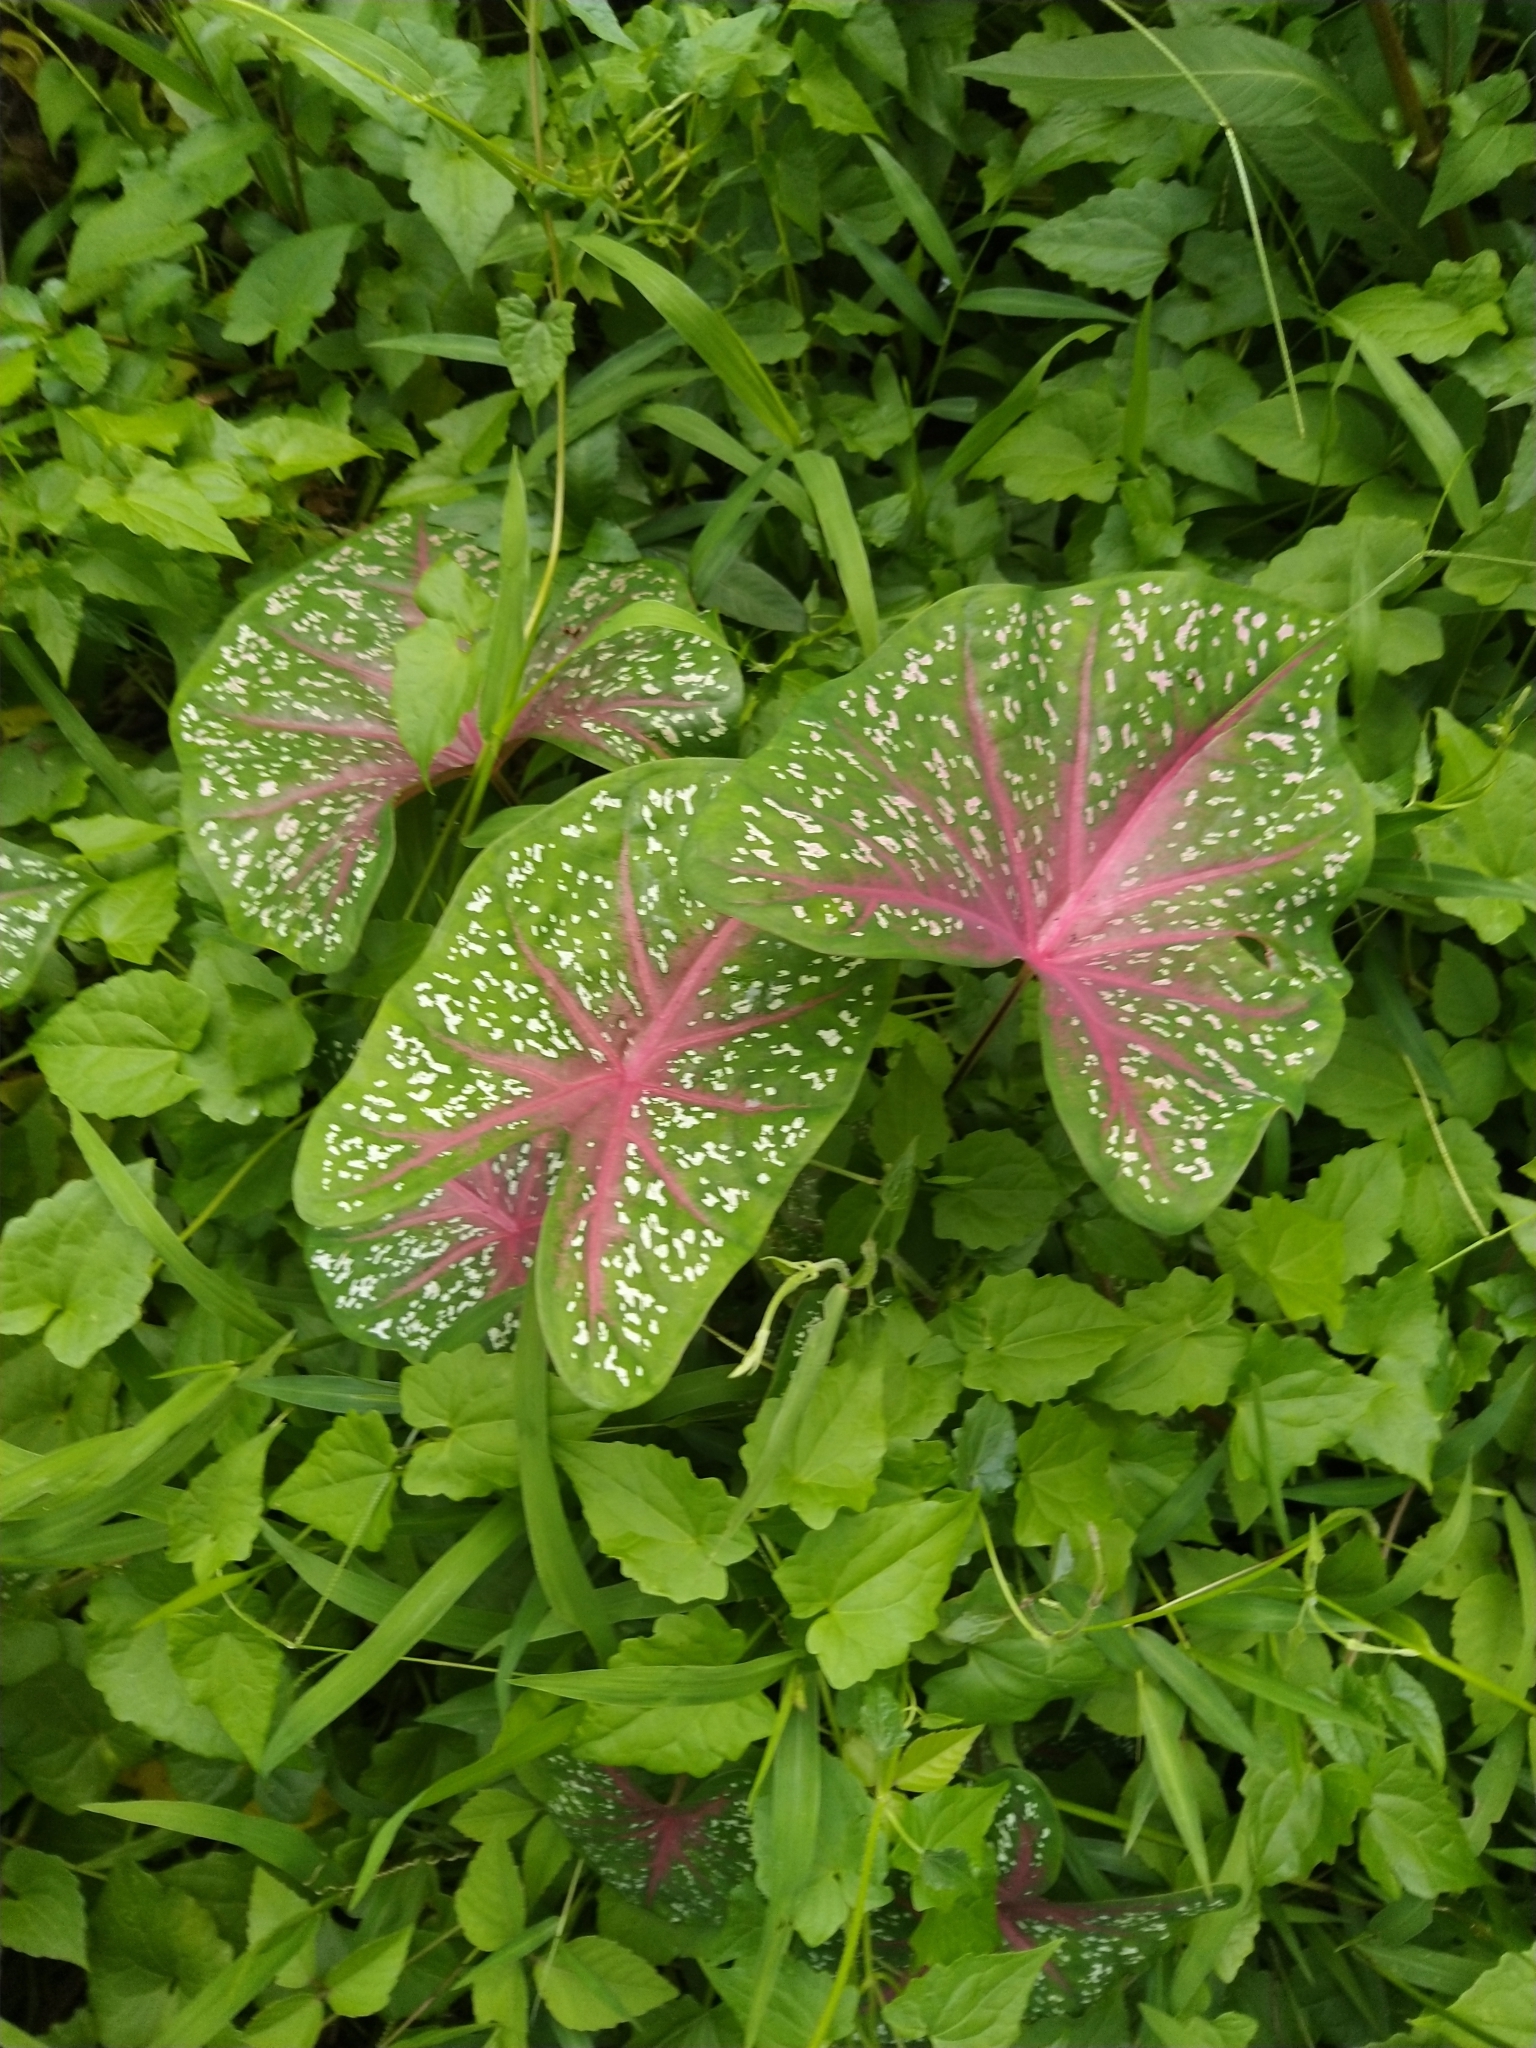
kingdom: Plantae
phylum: Tracheophyta
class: Liliopsida
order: Alismatales
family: Araceae
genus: Caladium
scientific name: Caladium bicolor
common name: Artist's pallet
